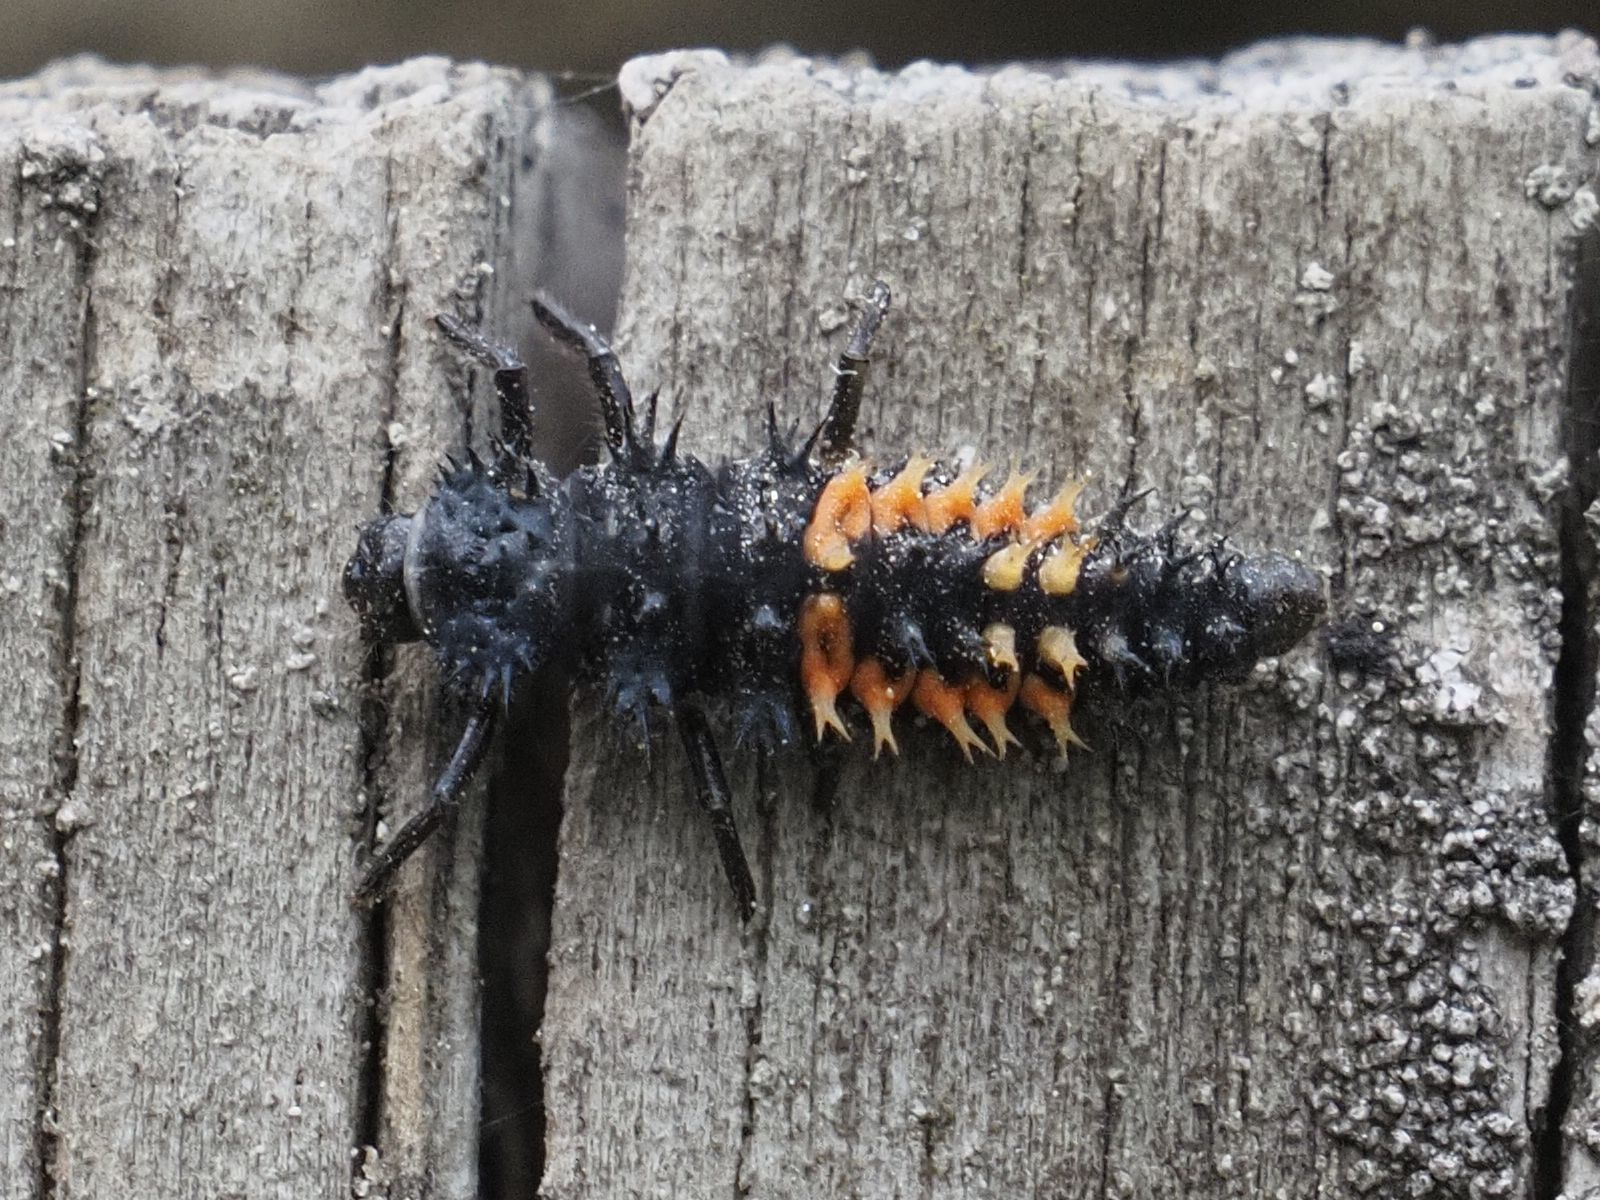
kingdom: Animalia
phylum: Arthropoda
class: Insecta
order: Coleoptera
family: Coccinellidae
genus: Harmonia
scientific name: Harmonia axyridis
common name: Harlequin ladybird
